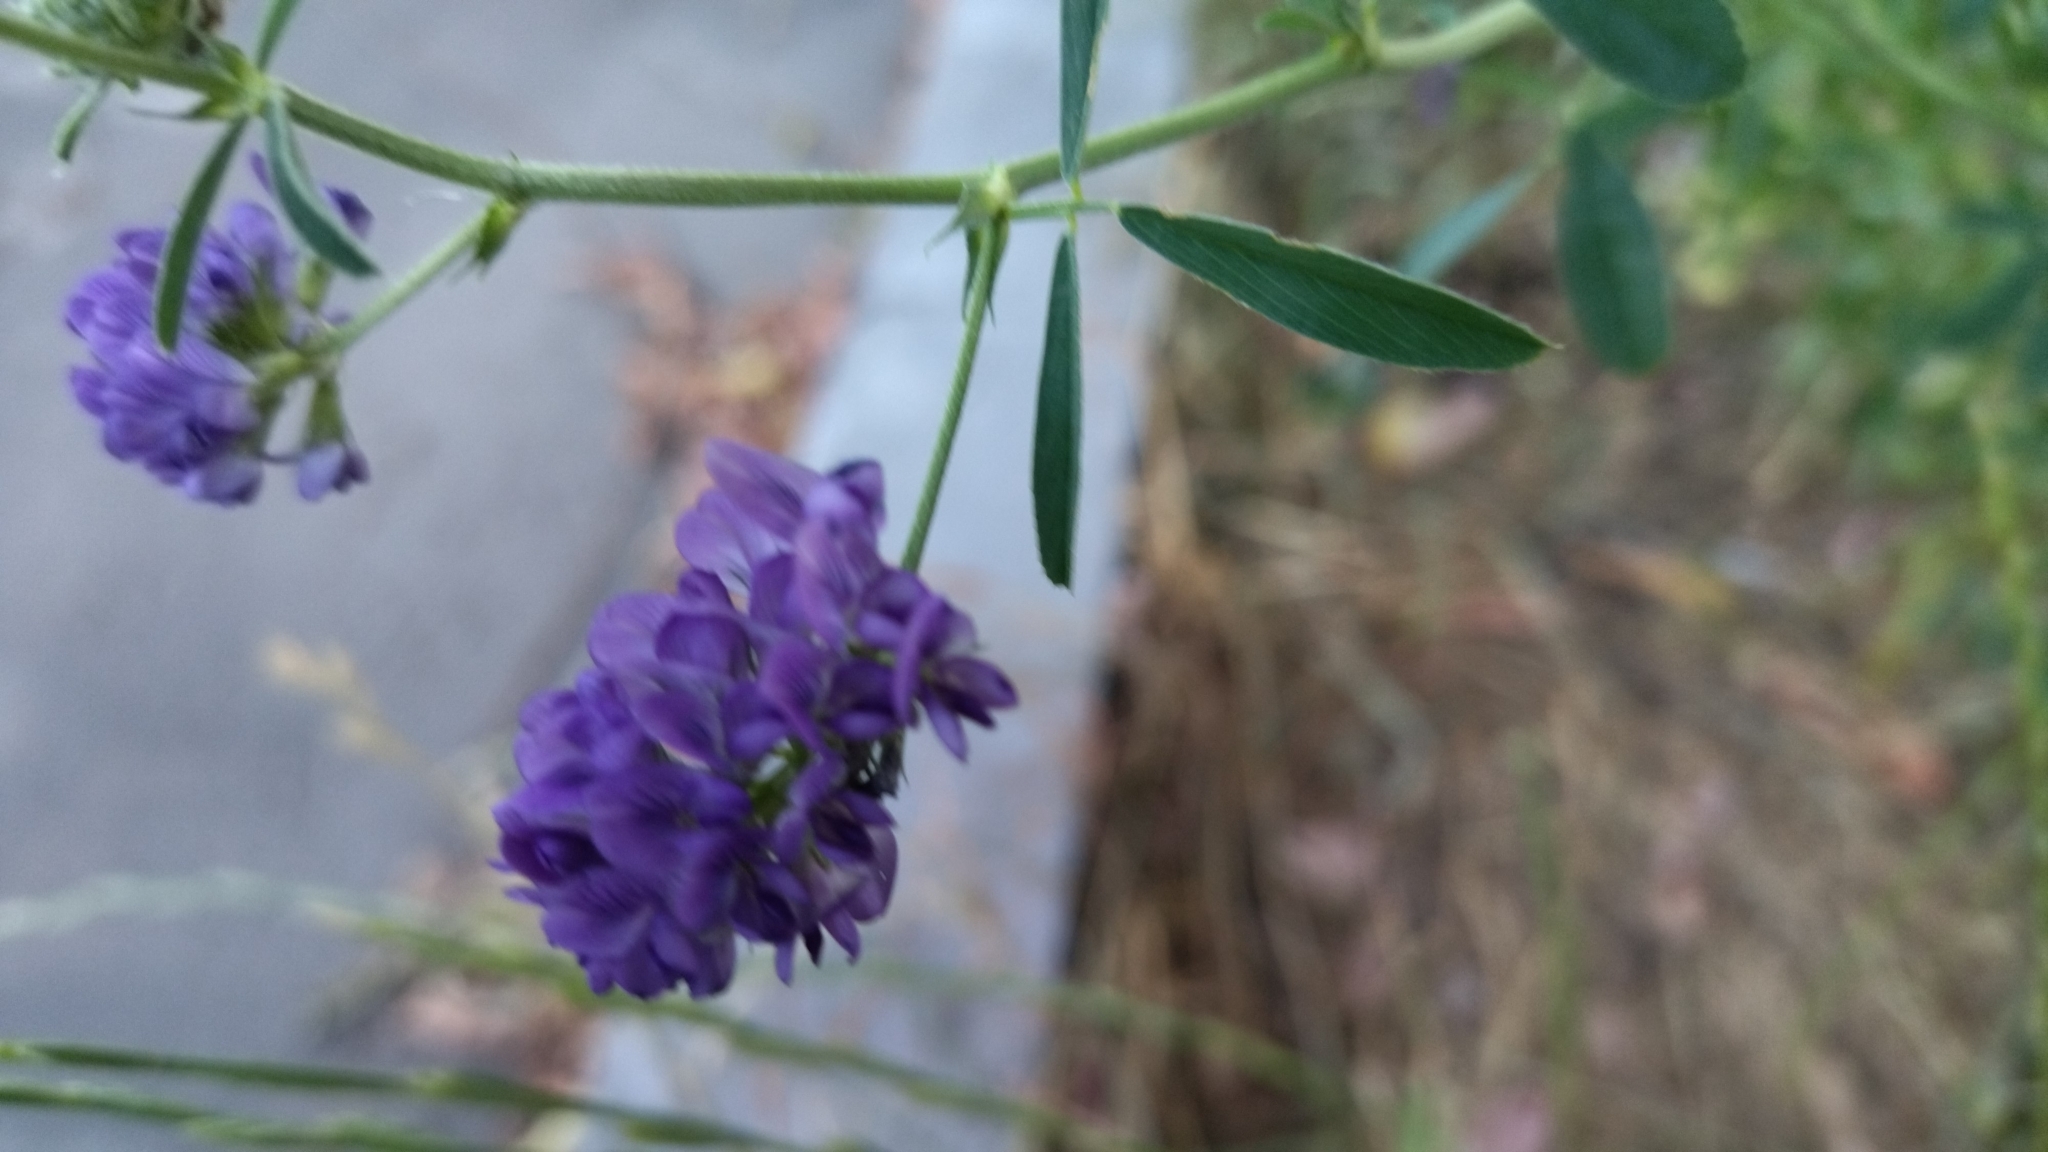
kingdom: Plantae
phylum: Tracheophyta
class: Magnoliopsida
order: Fabales
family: Fabaceae
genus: Medicago
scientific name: Medicago sativa
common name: Alfalfa
